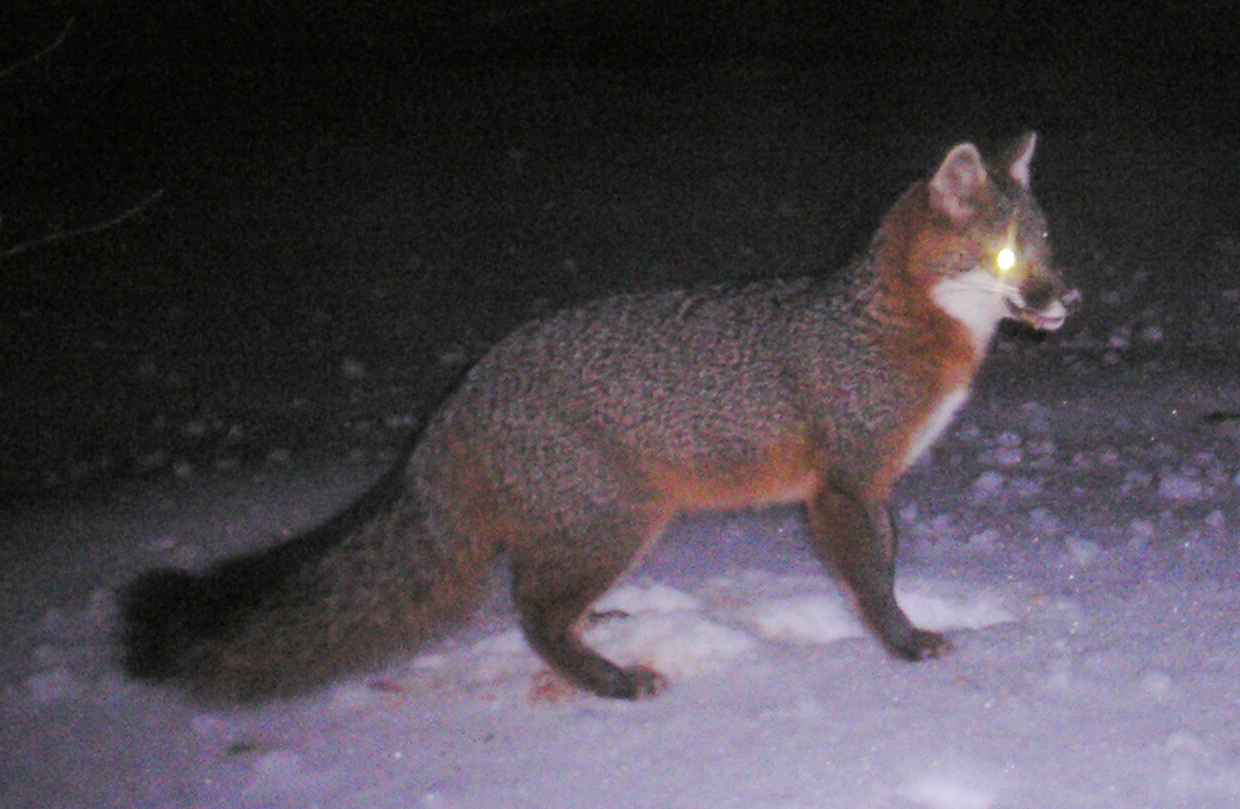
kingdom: Animalia
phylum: Chordata
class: Mammalia
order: Carnivora
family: Canidae
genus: Urocyon
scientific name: Urocyon cinereoargenteus
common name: Gray fox
